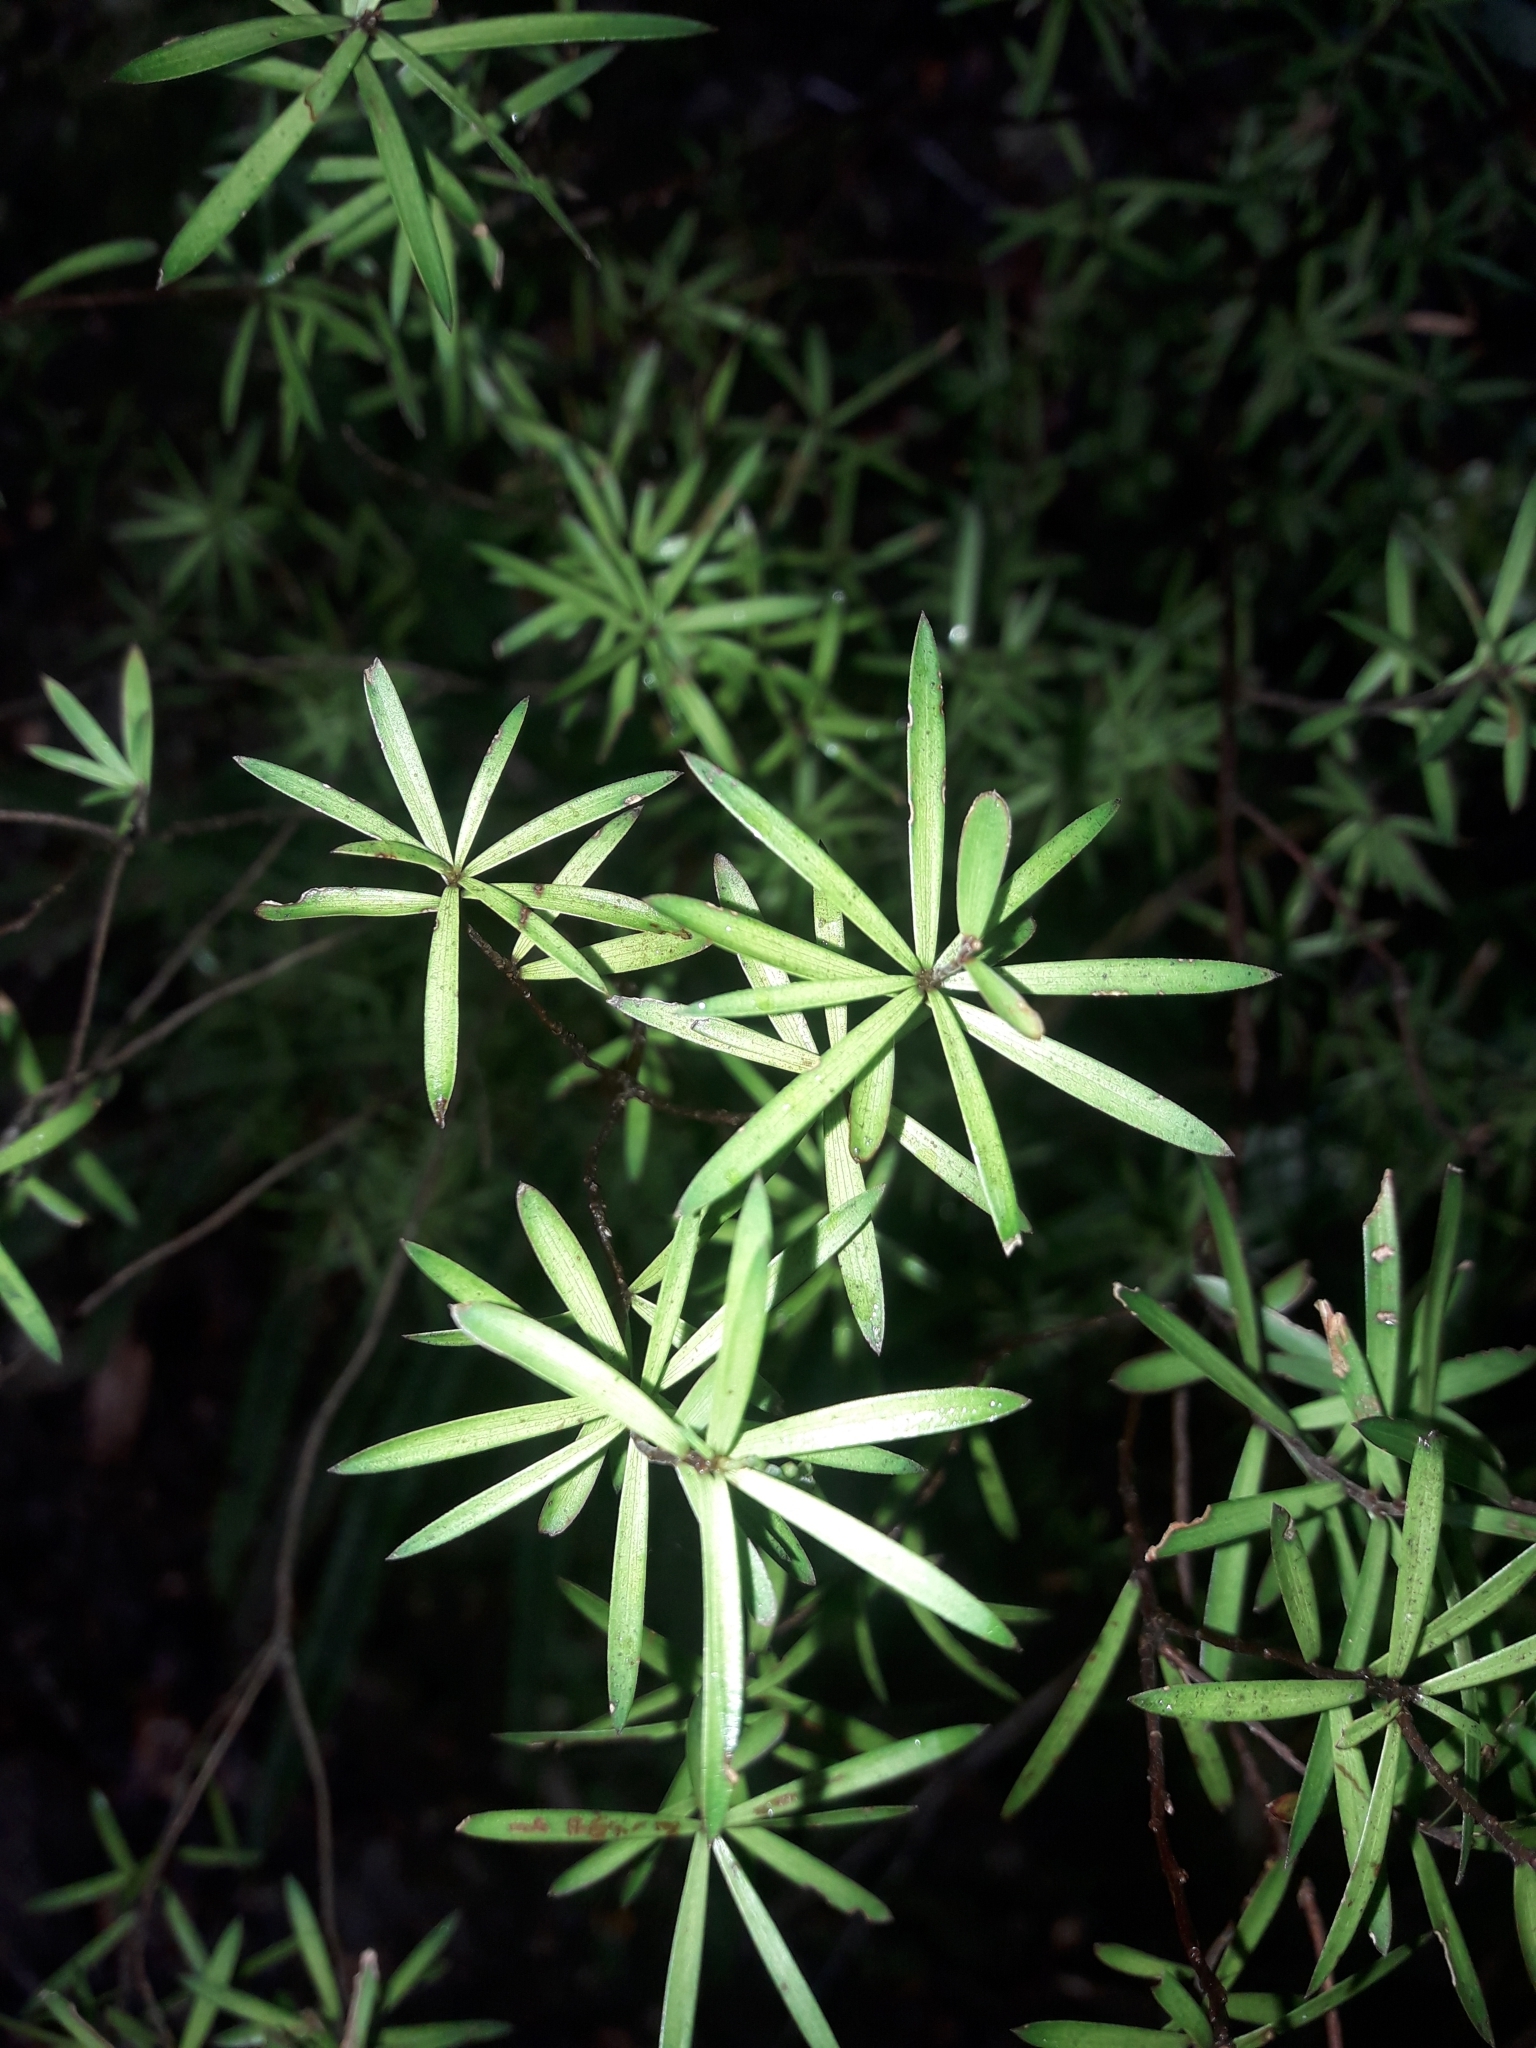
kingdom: Plantae
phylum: Tracheophyta
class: Magnoliopsida
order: Ericales
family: Ericaceae
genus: Leucopogon
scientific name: Leucopogon fasciculatus
